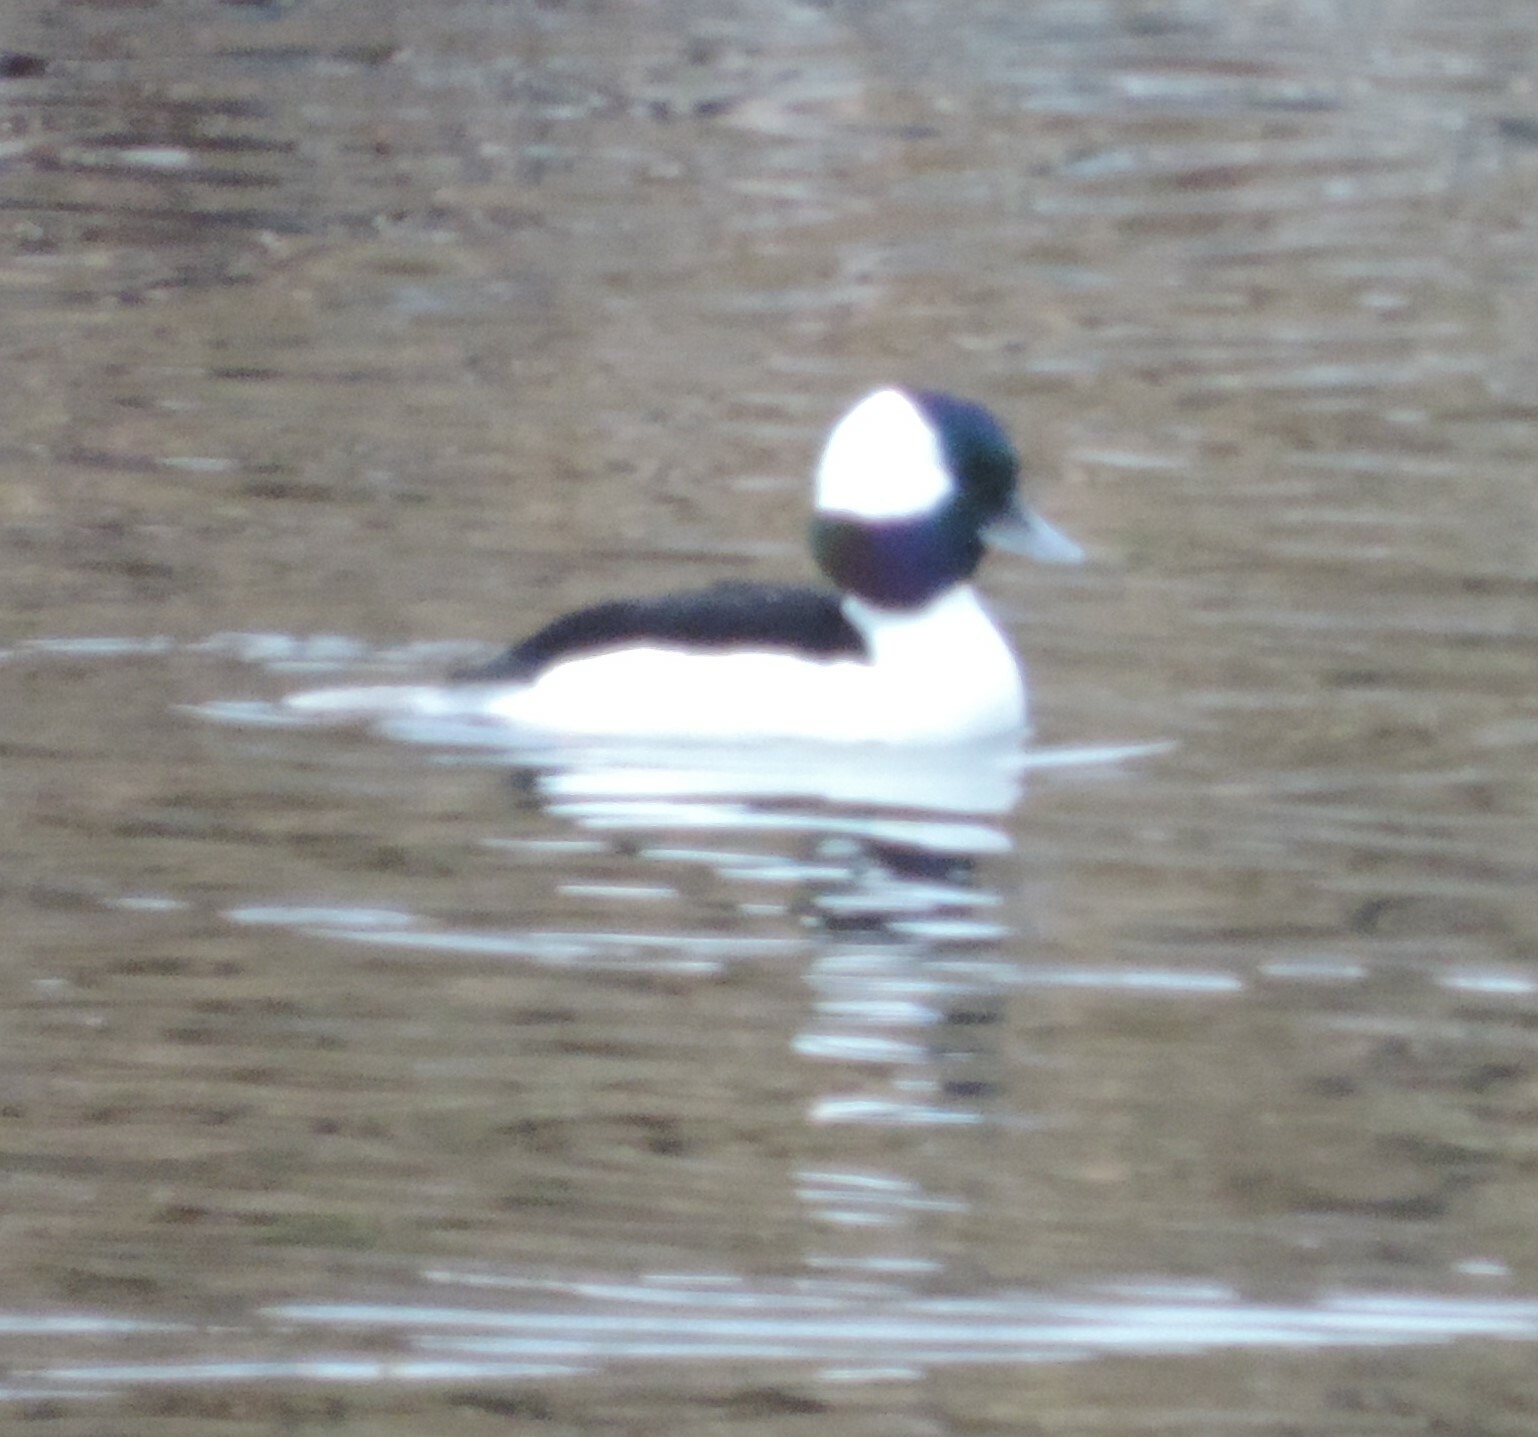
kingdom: Animalia
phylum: Chordata
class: Aves
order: Anseriformes
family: Anatidae
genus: Bucephala
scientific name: Bucephala albeola
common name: Bufflehead
